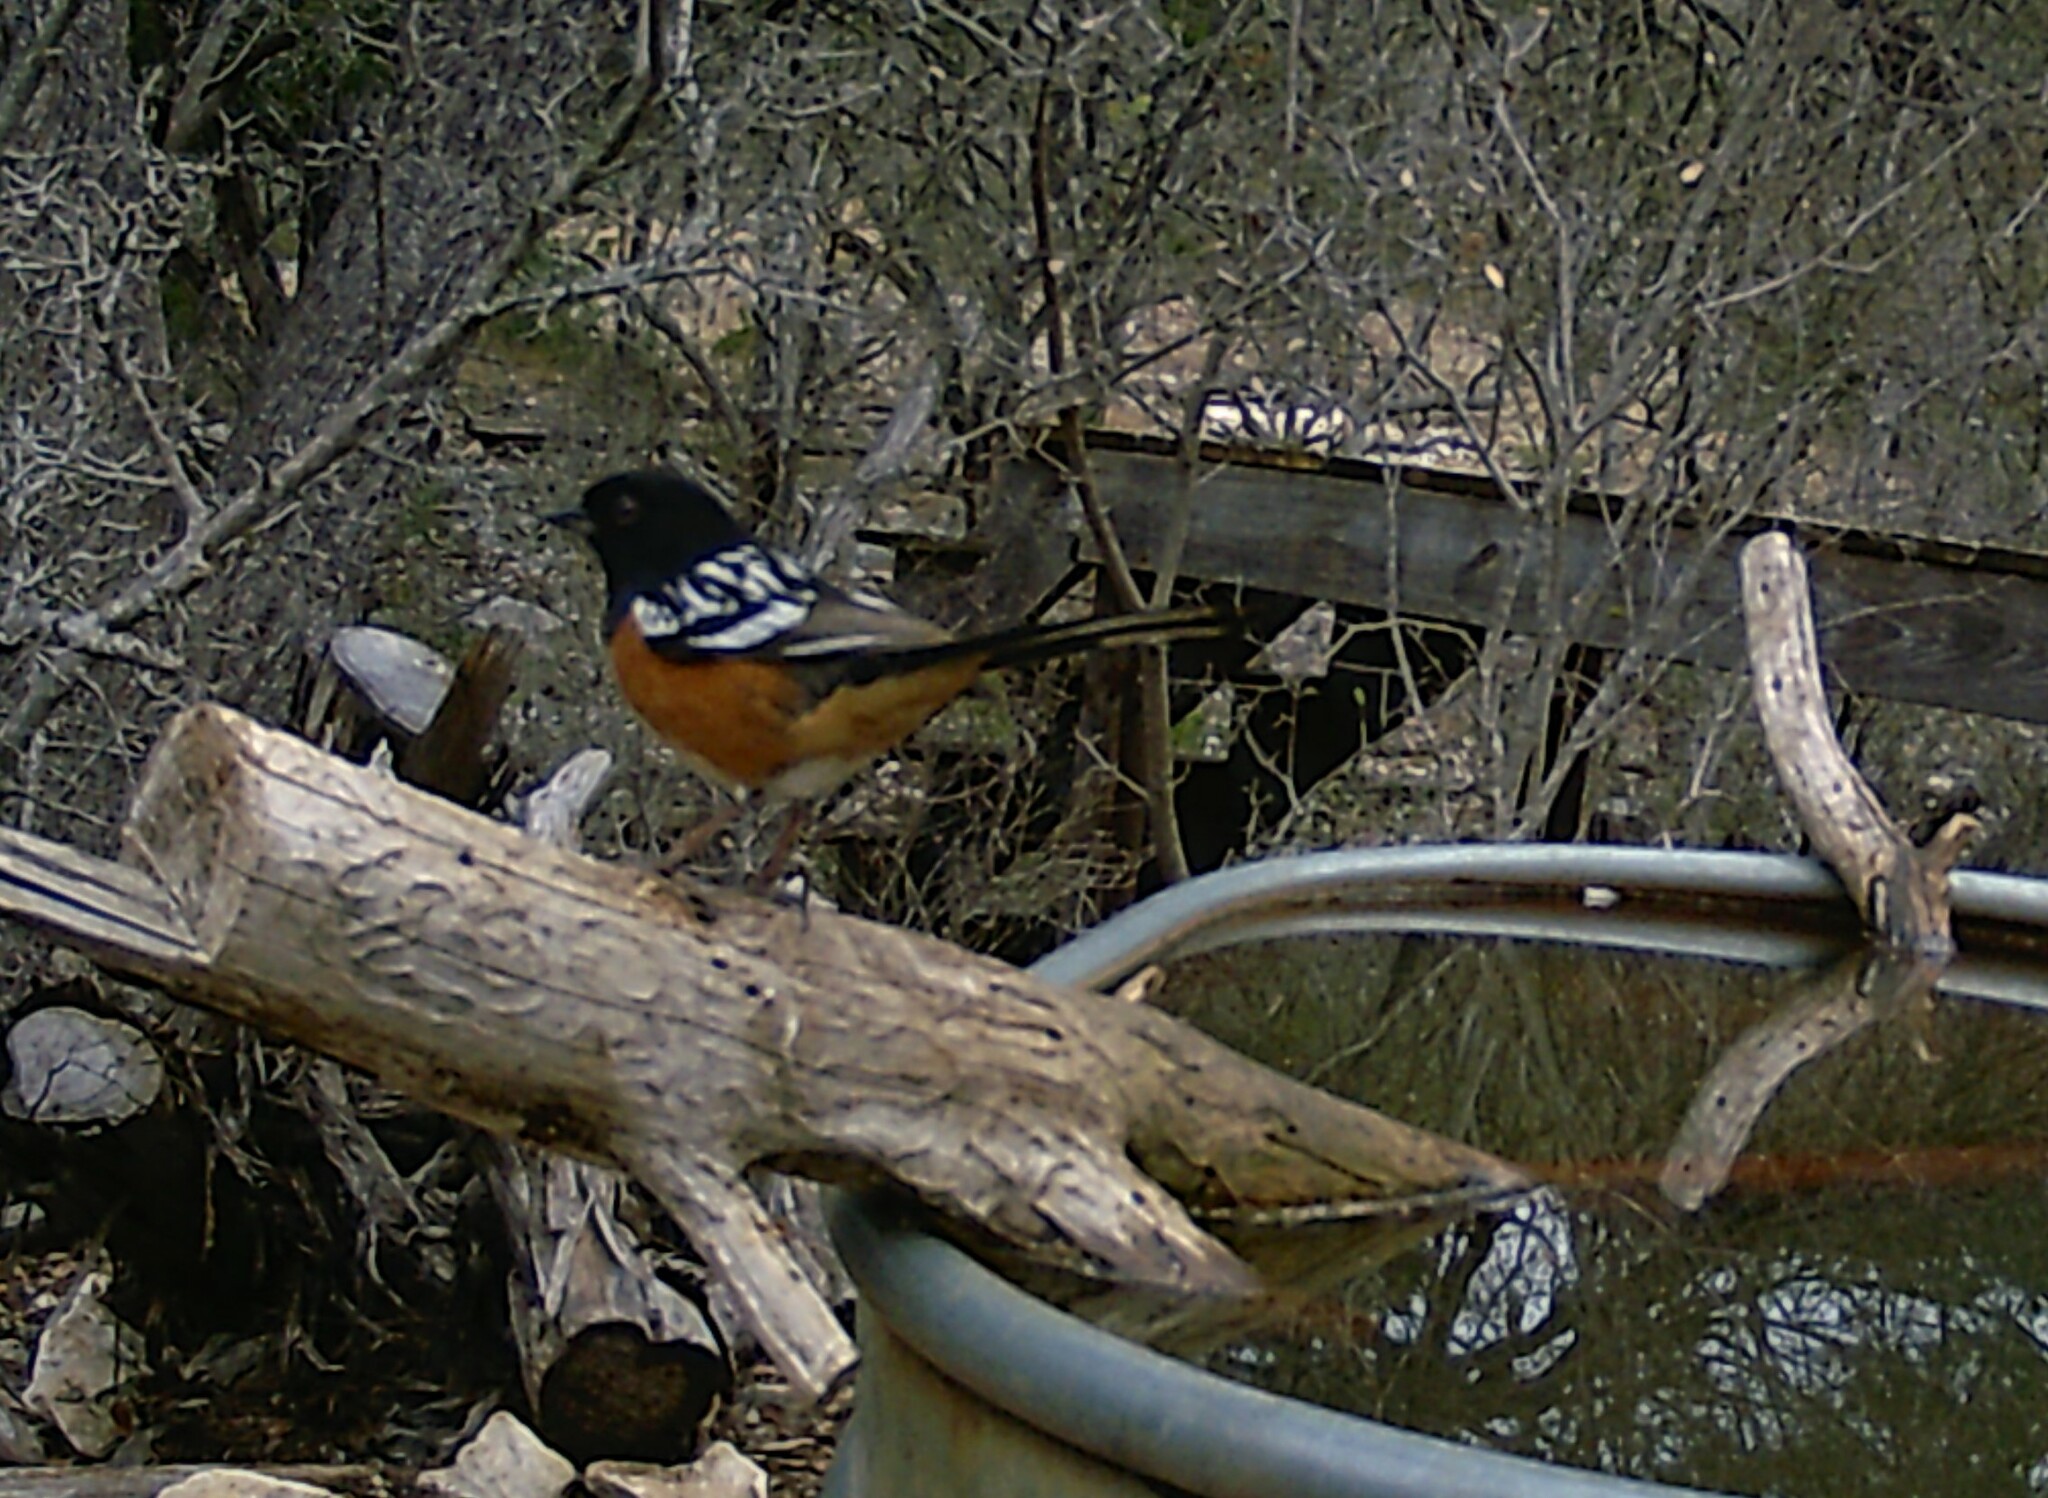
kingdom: Animalia
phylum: Chordata
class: Aves
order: Passeriformes
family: Passerellidae
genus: Pipilo
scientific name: Pipilo maculatus
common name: Spotted towhee
